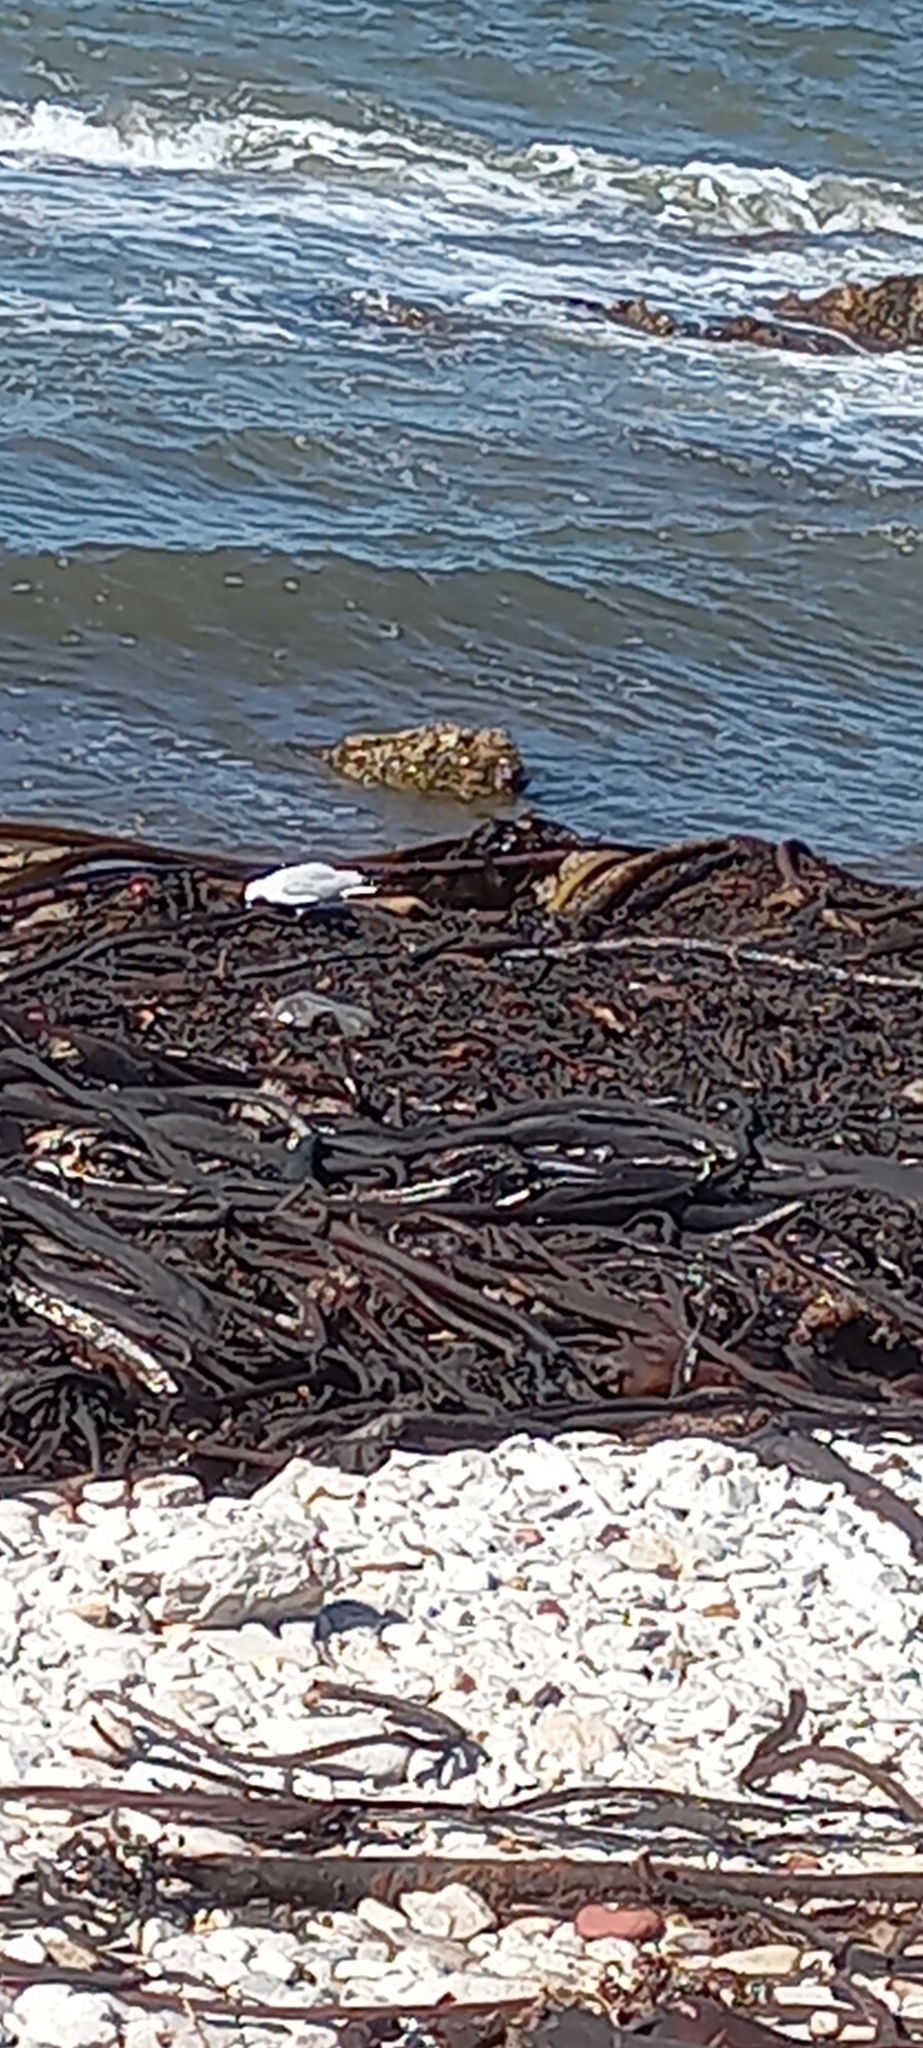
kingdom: Animalia
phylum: Chordata
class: Aves
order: Charadriiformes
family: Laridae
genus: Chroicocephalus
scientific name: Chroicocephalus hartlaubii
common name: Hartlaub's gull
